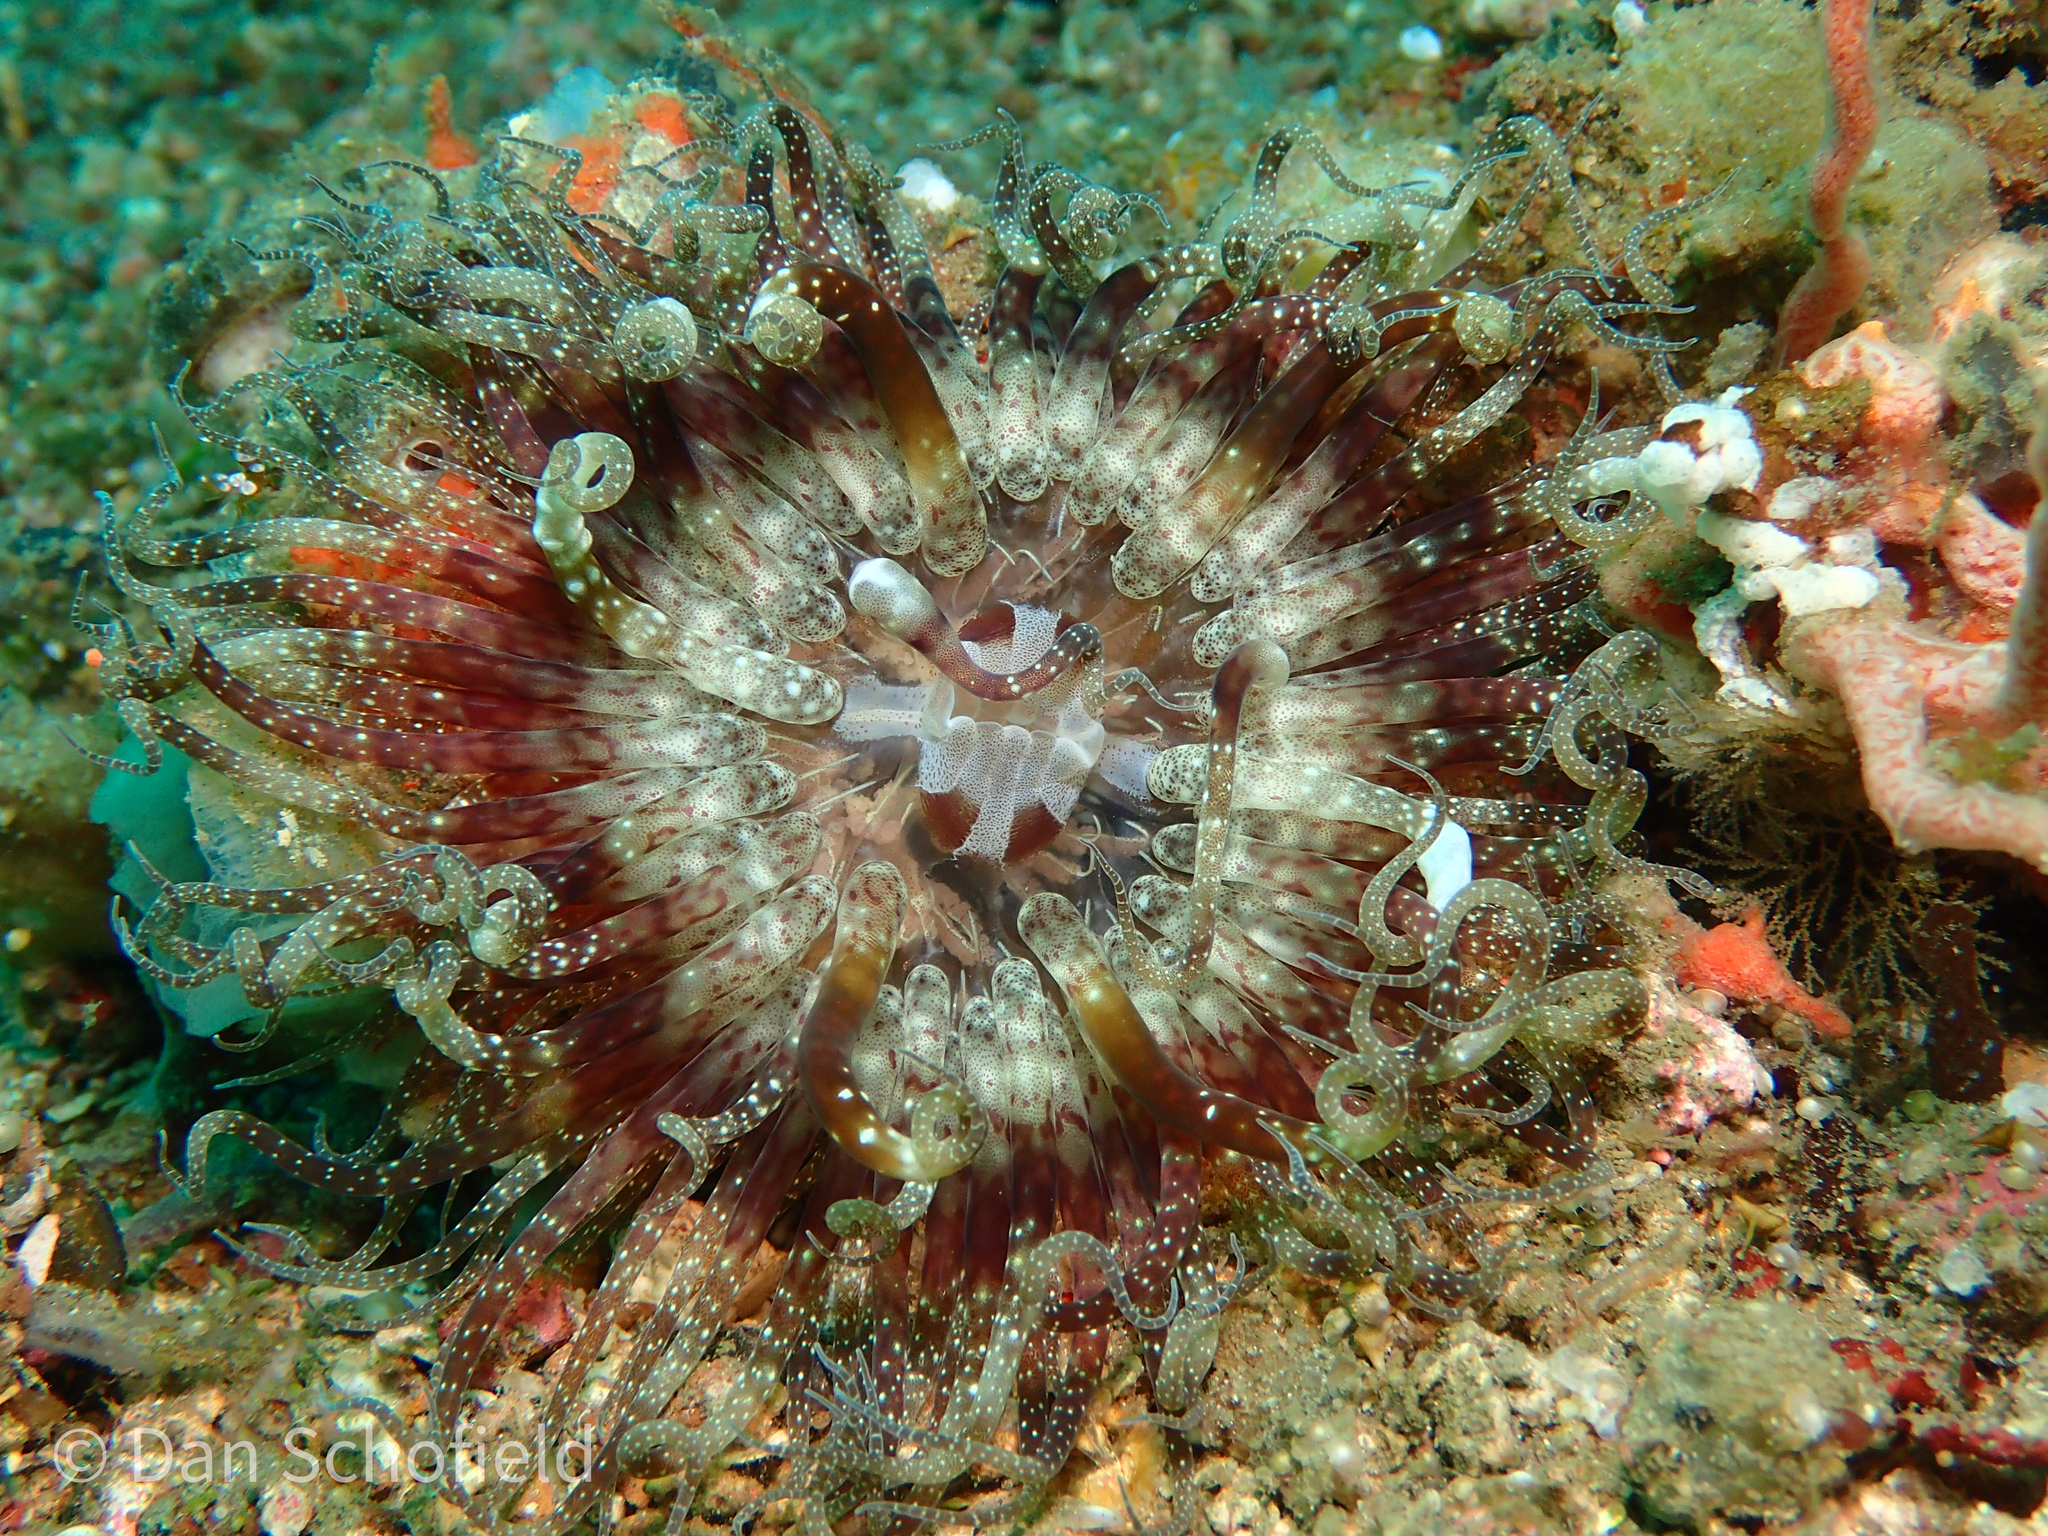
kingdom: Animalia
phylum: Cnidaria
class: Anthozoa
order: Actiniaria
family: Boloceroididae
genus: Boloceroides
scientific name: Boloceroides mcmurrichi
